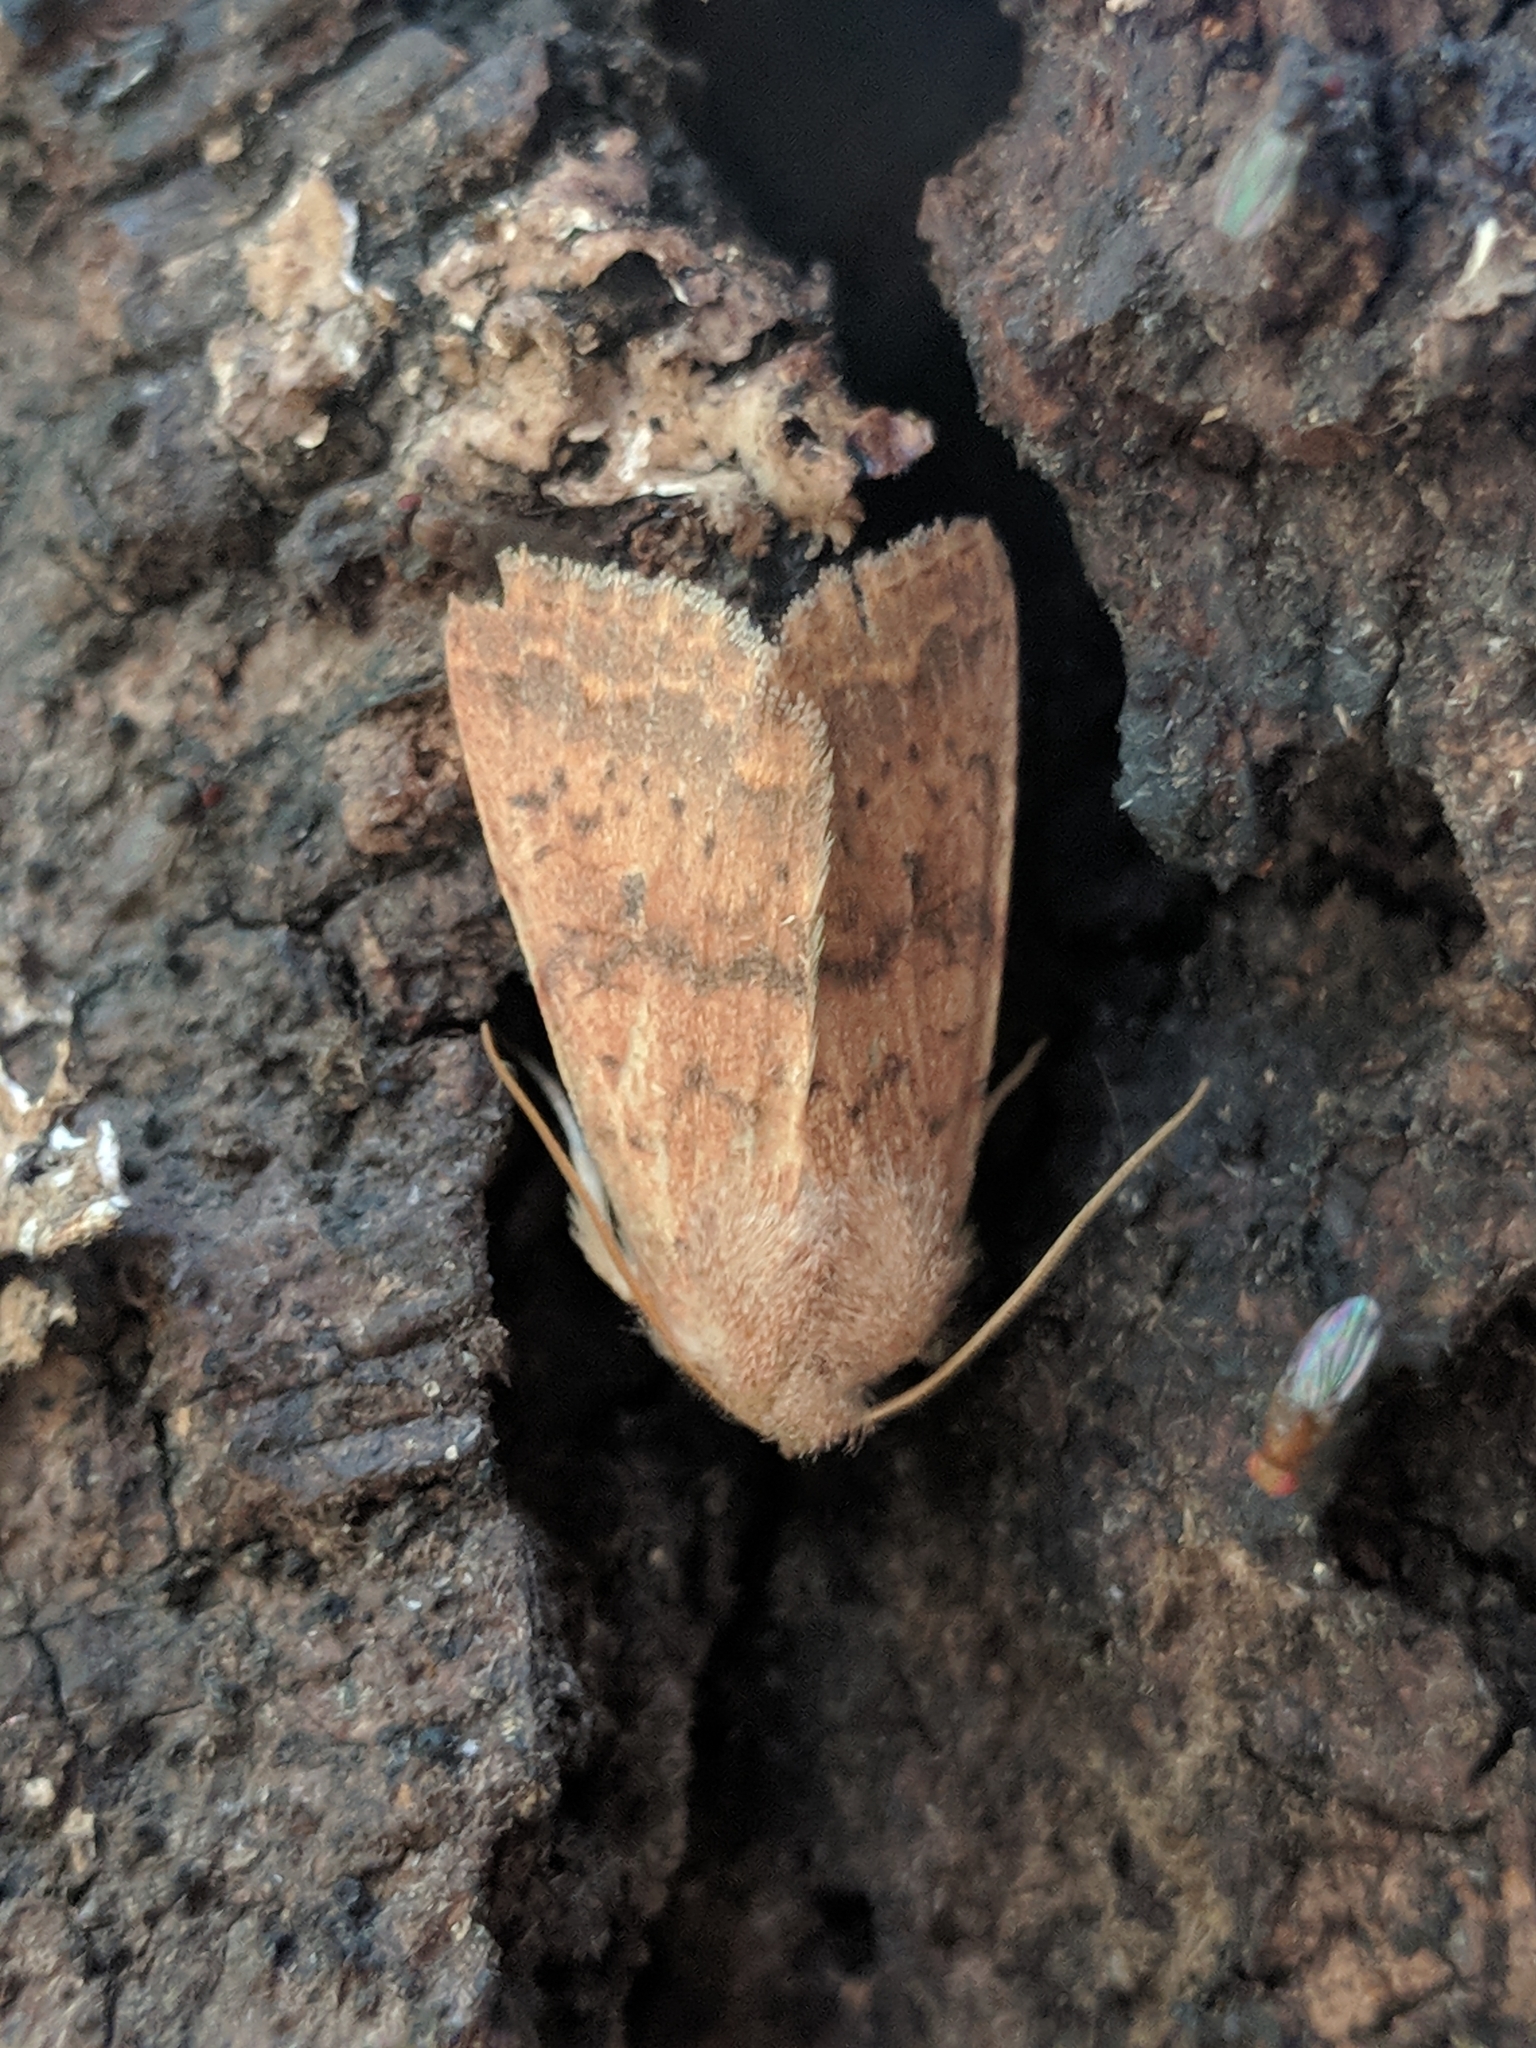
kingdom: Animalia
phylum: Arthropoda
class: Insecta
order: Lepidoptera
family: Noctuidae
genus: Agrochola
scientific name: Agrochola bicolorago
